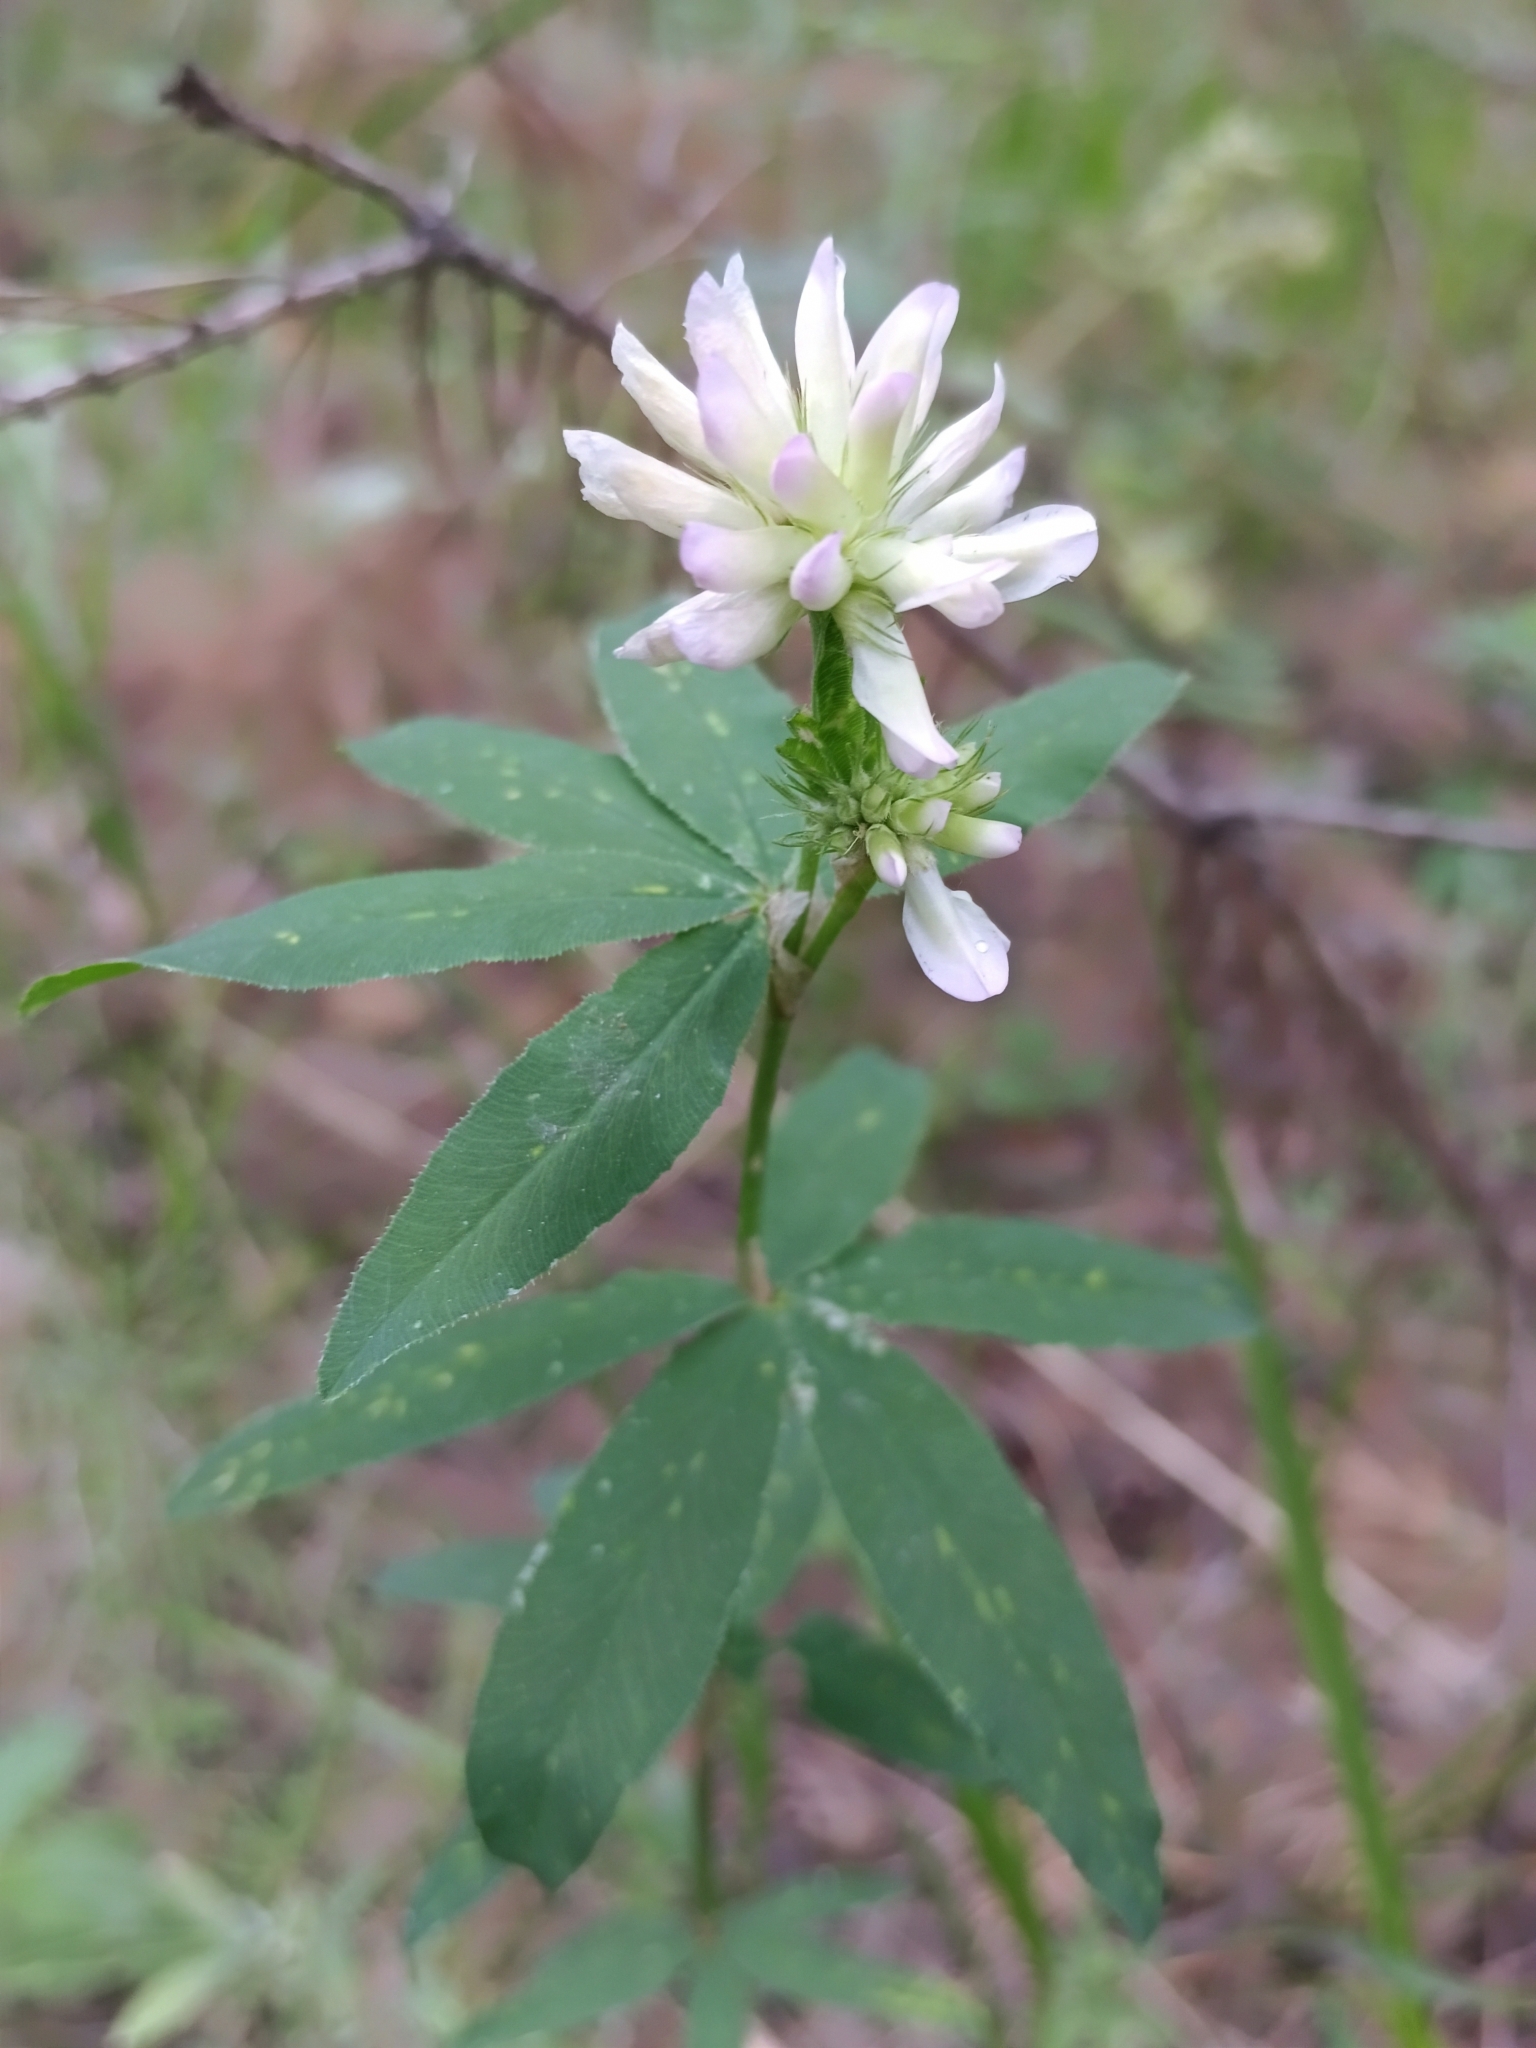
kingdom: Plantae
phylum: Tracheophyta
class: Magnoliopsida
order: Fabales
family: Fabaceae
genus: Trifolium
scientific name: Trifolium lupinaster
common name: Lupine clover
